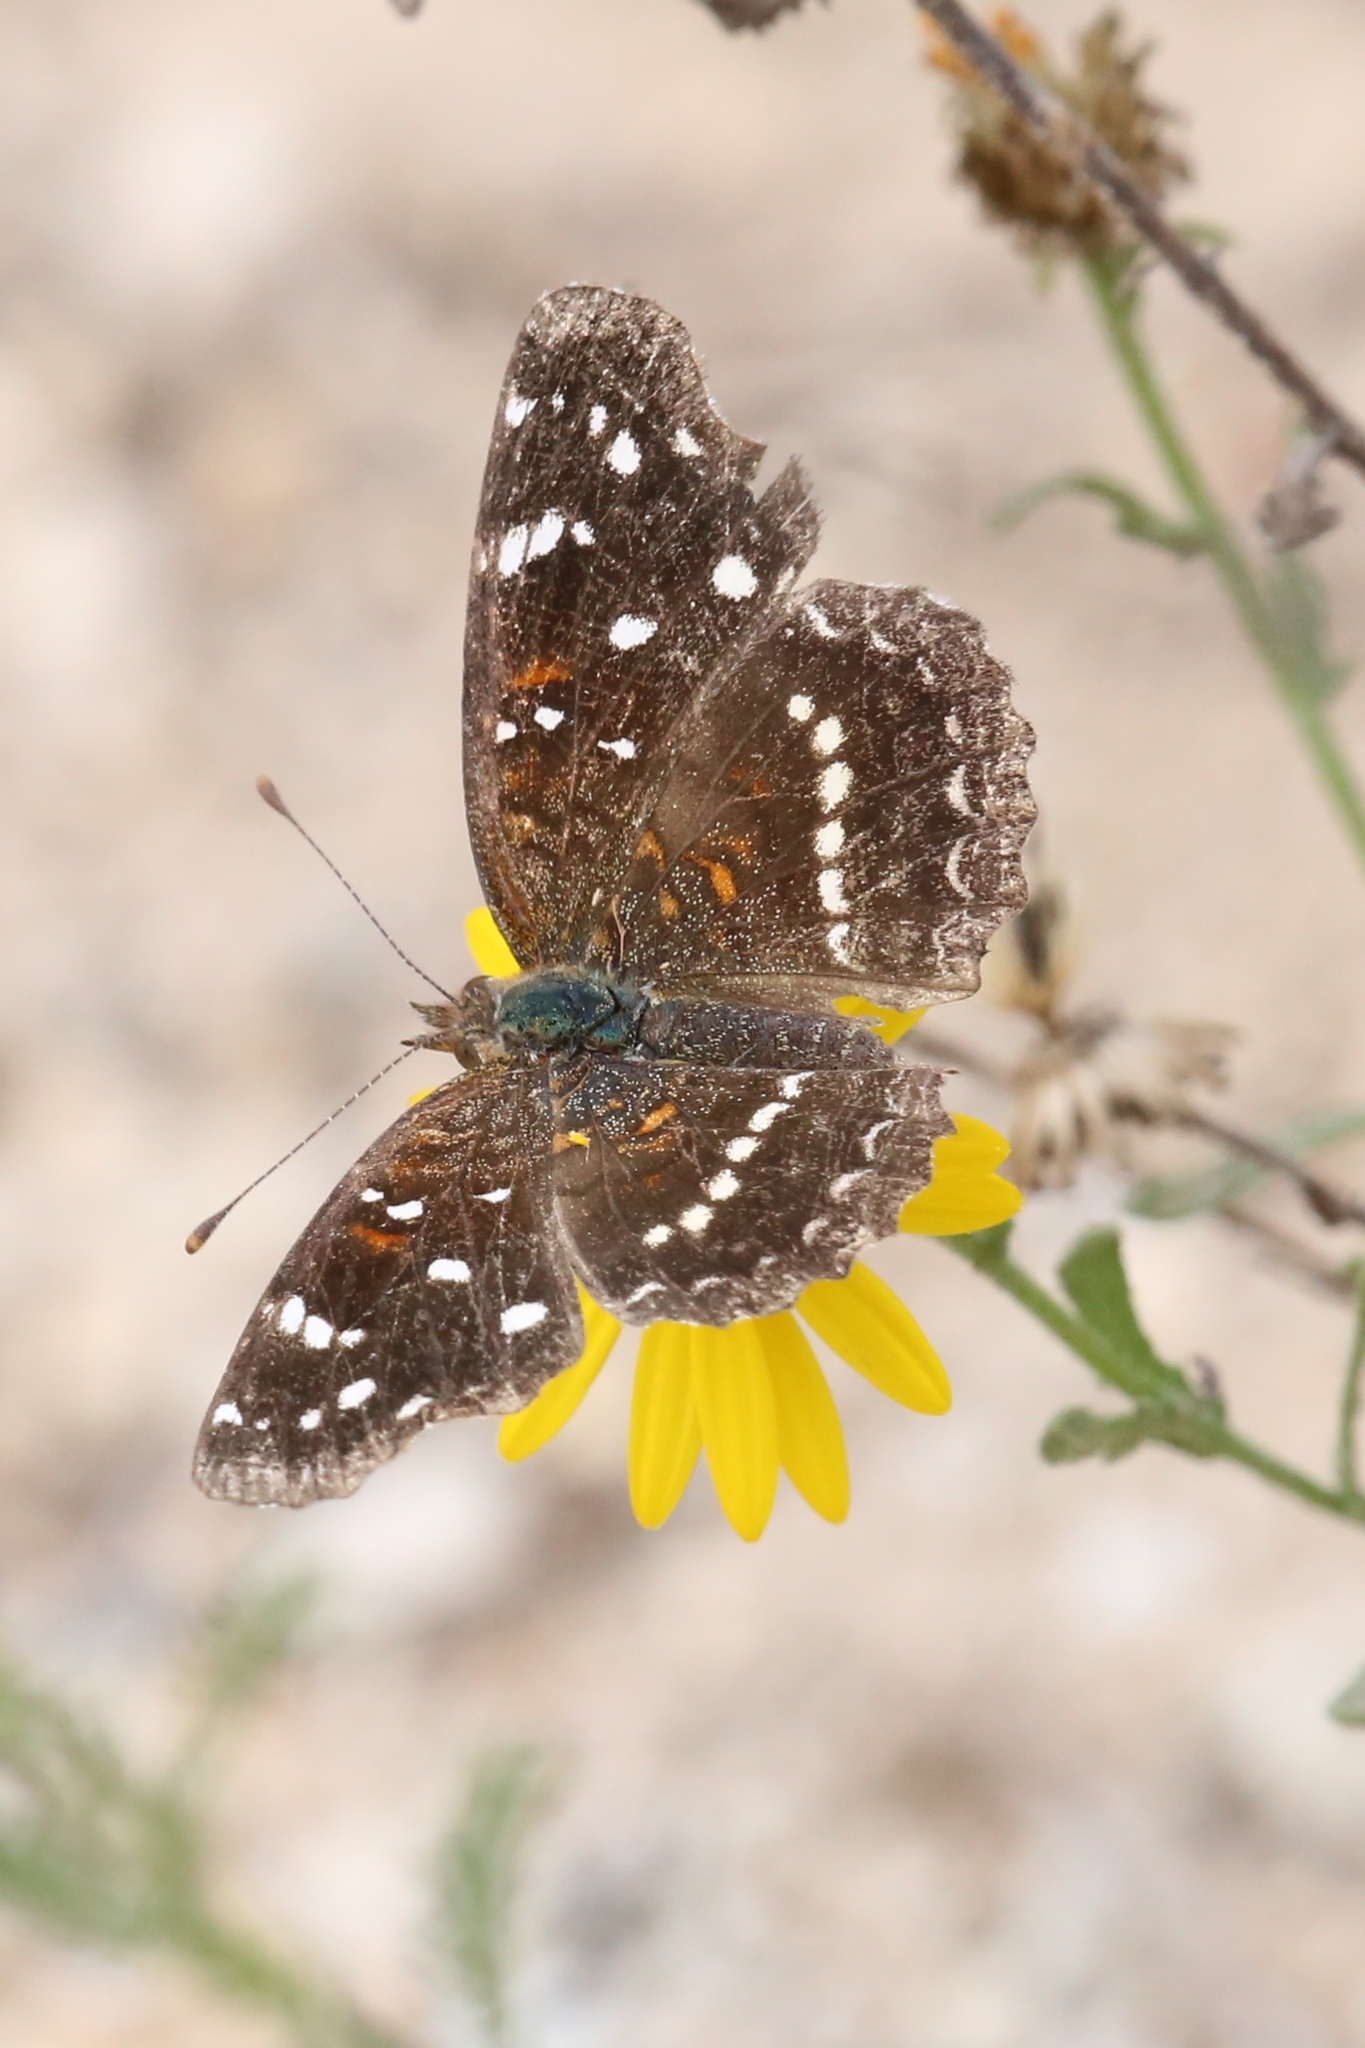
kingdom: Animalia
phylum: Arthropoda
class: Insecta
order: Lepidoptera
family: Nymphalidae
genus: Anthanassa
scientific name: Anthanassa texana
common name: Texan crescent
